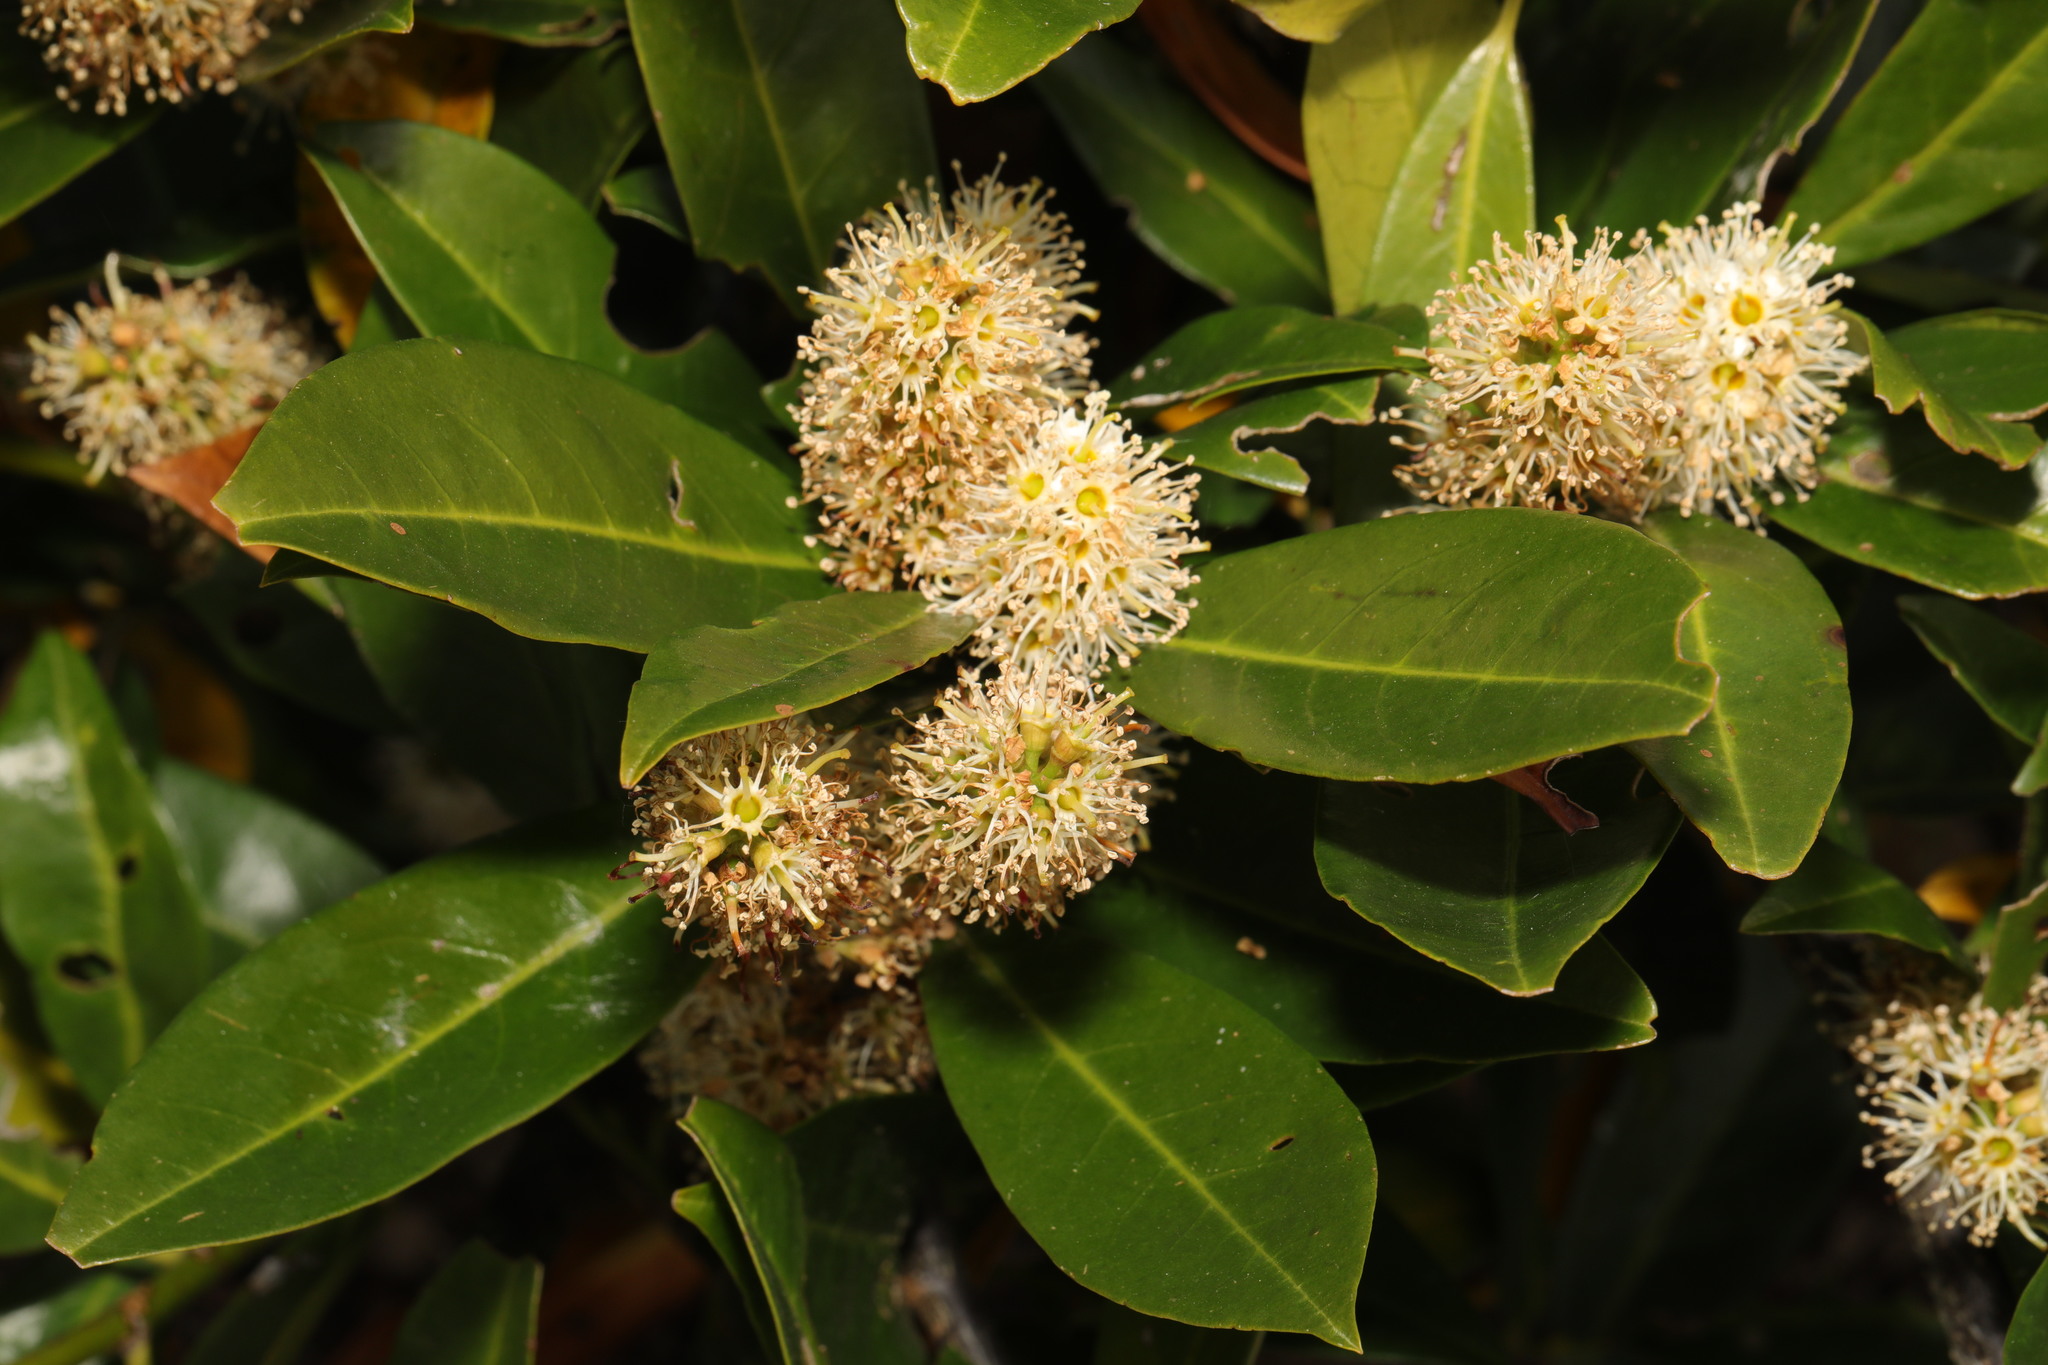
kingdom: Plantae
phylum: Tracheophyta
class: Magnoliopsida
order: Rosales
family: Rosaceae
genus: Prunus
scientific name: Prunus laurocerasus
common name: Cherry laurel
